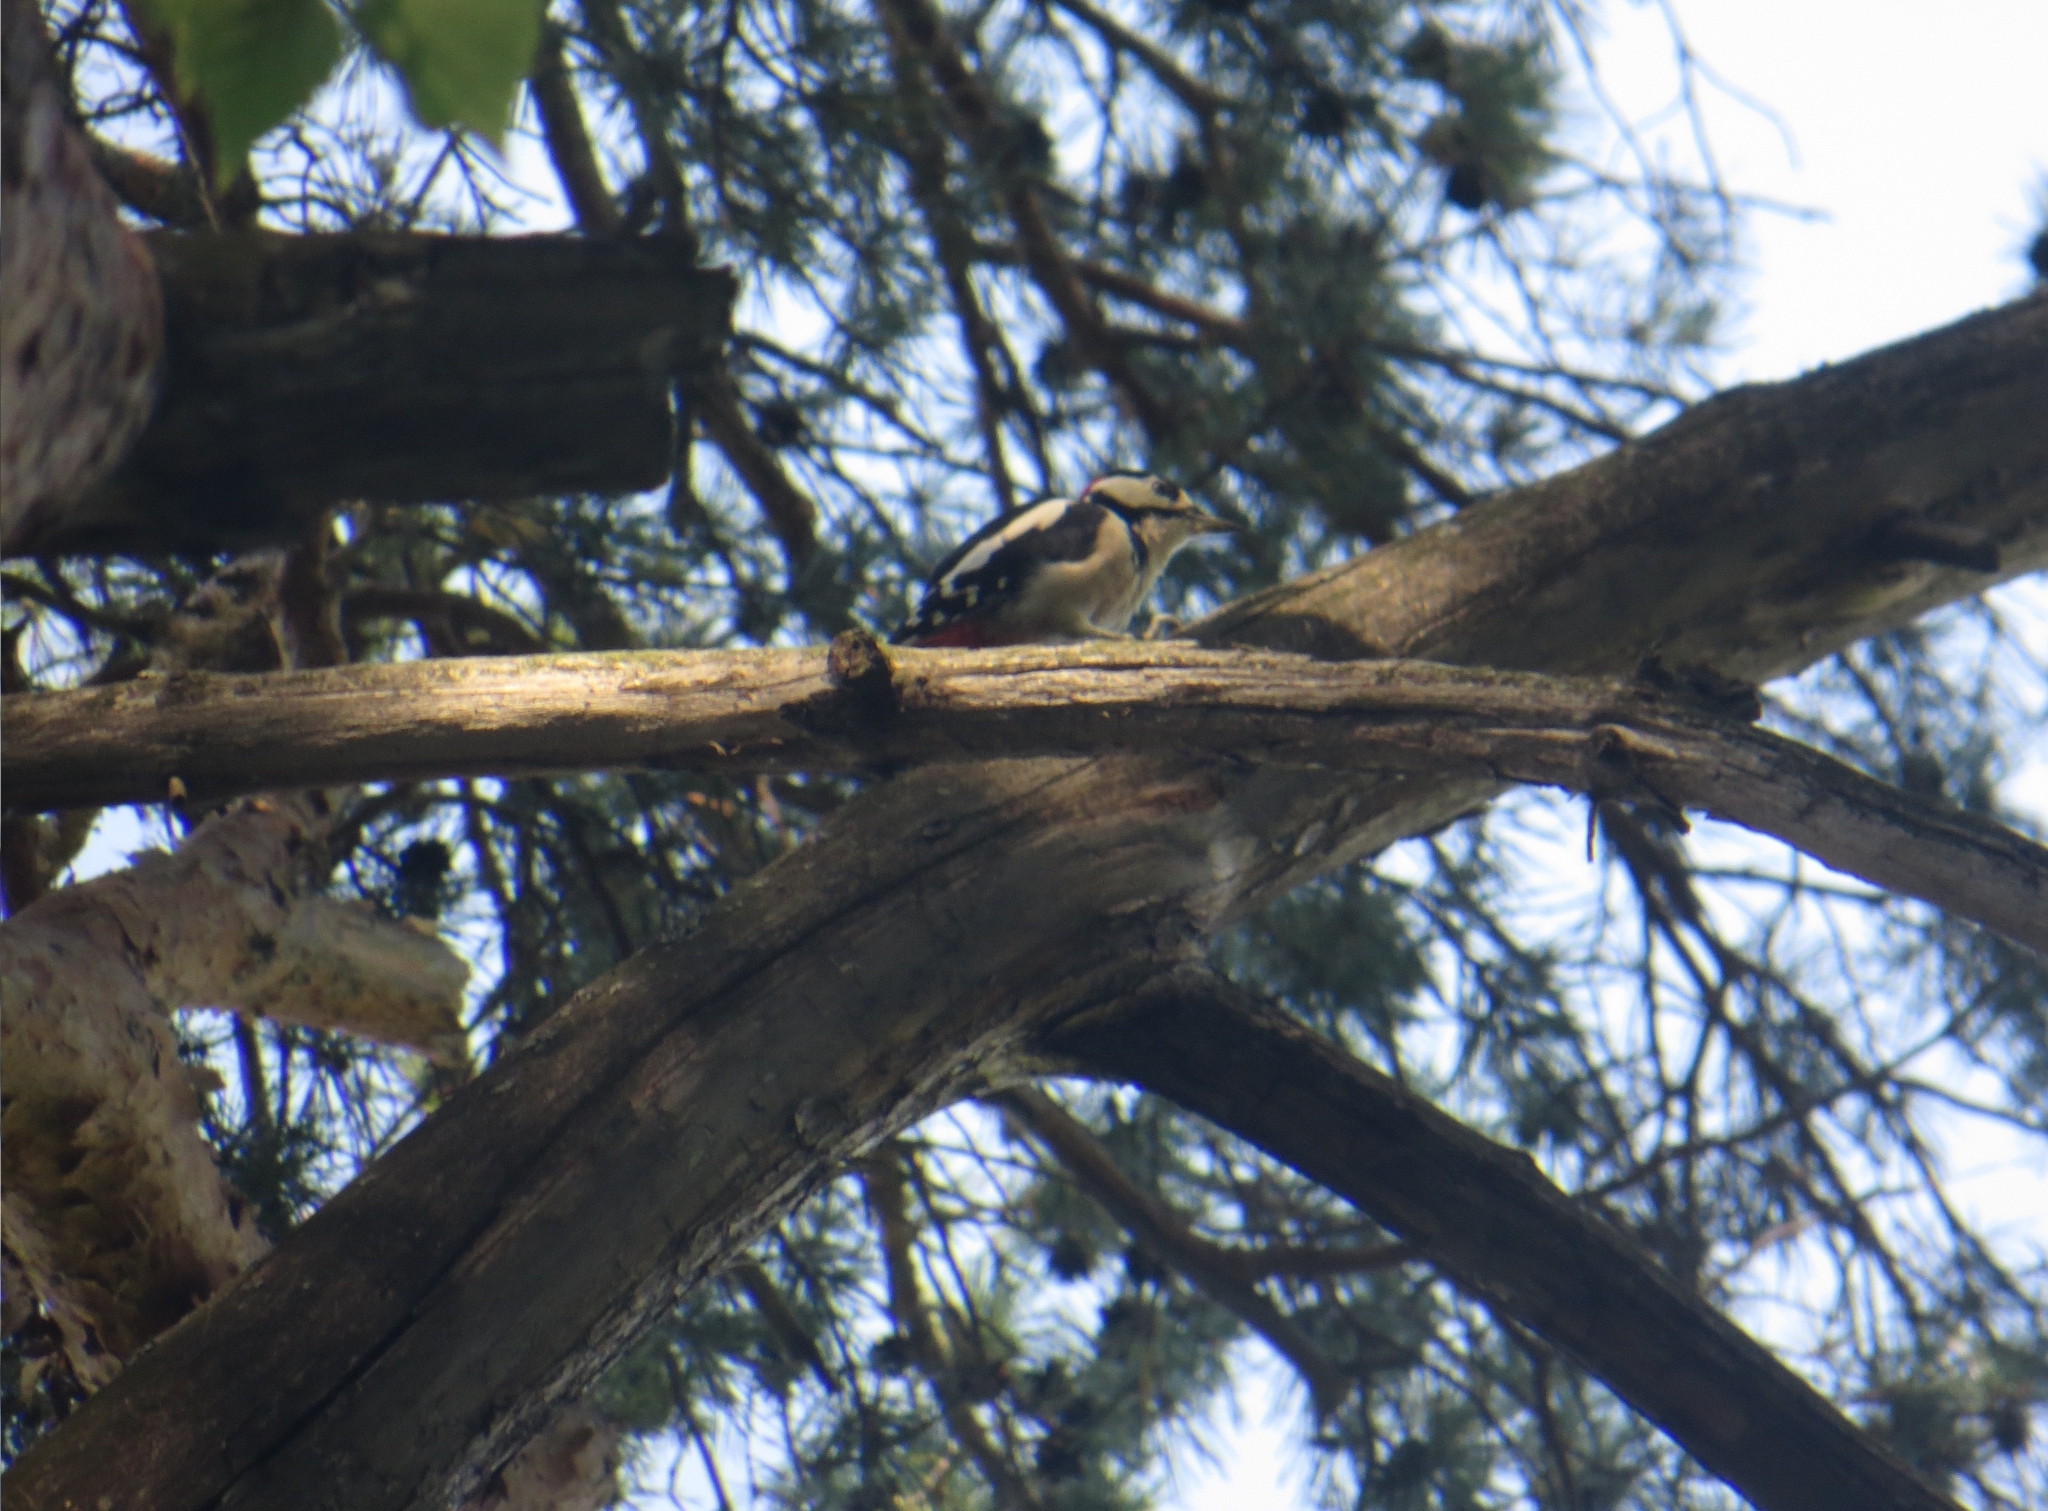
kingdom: Animalia
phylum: Chordata
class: Aves
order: Piciformes
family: Picidae
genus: Dendrocopos
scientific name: Dendrocopos major
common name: Great spotted woodpecker
